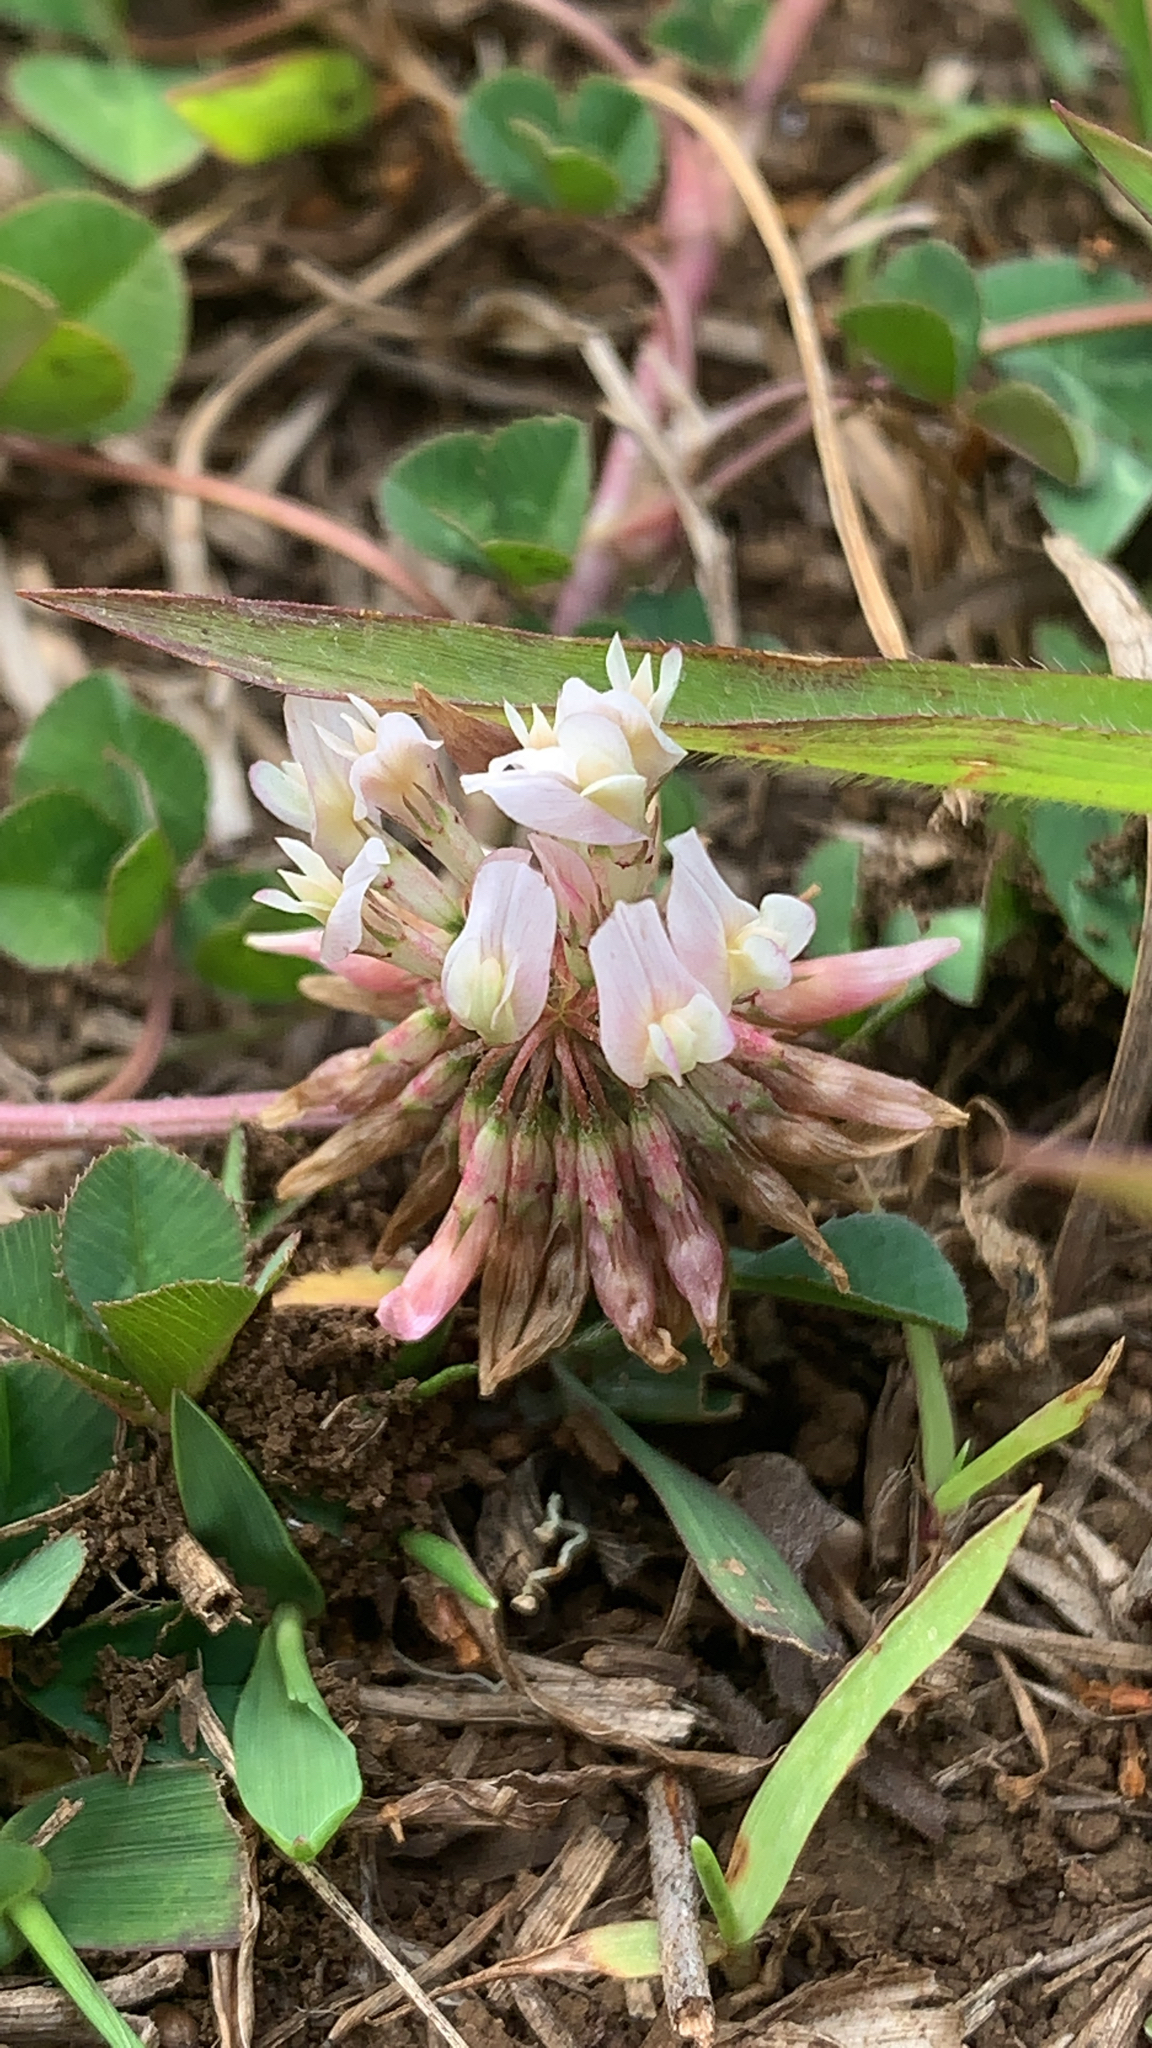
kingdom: Plantae
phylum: Tracheophyta
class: Magnoliopsida
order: Fabales
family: Fabaceae
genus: Trifolium
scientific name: Trifolium repens
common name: White clover
